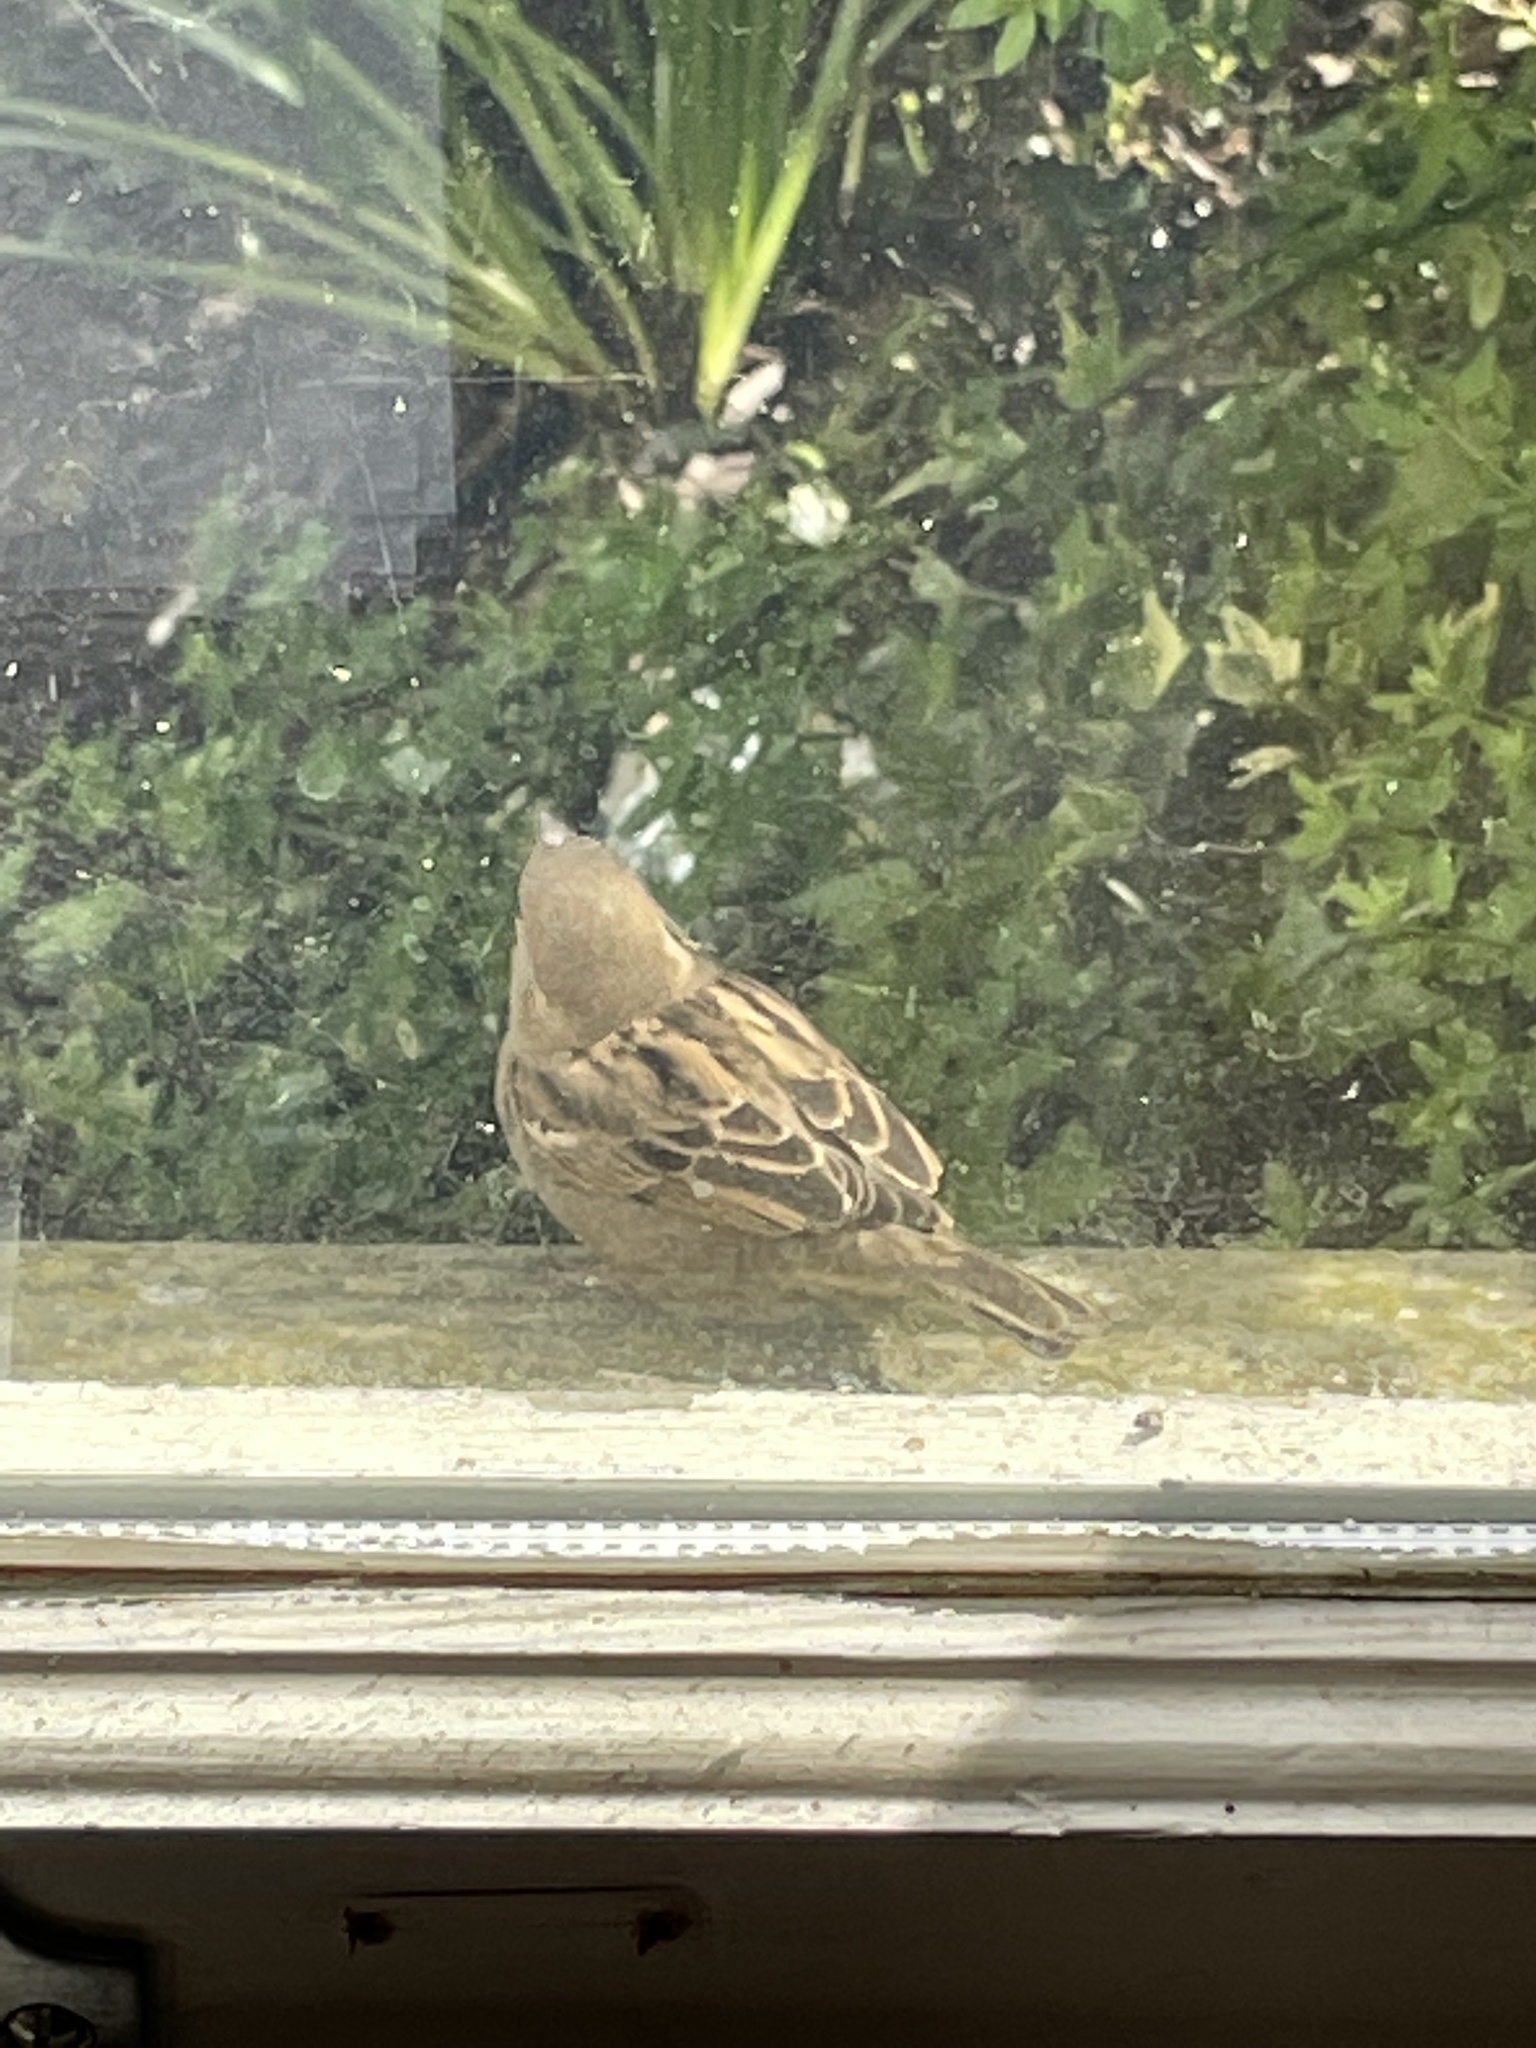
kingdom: Animalia
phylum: Chordata
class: Aves
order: Passeriformes
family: Passeridae
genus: Passer
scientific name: Passer domesticus
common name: House sparrow
